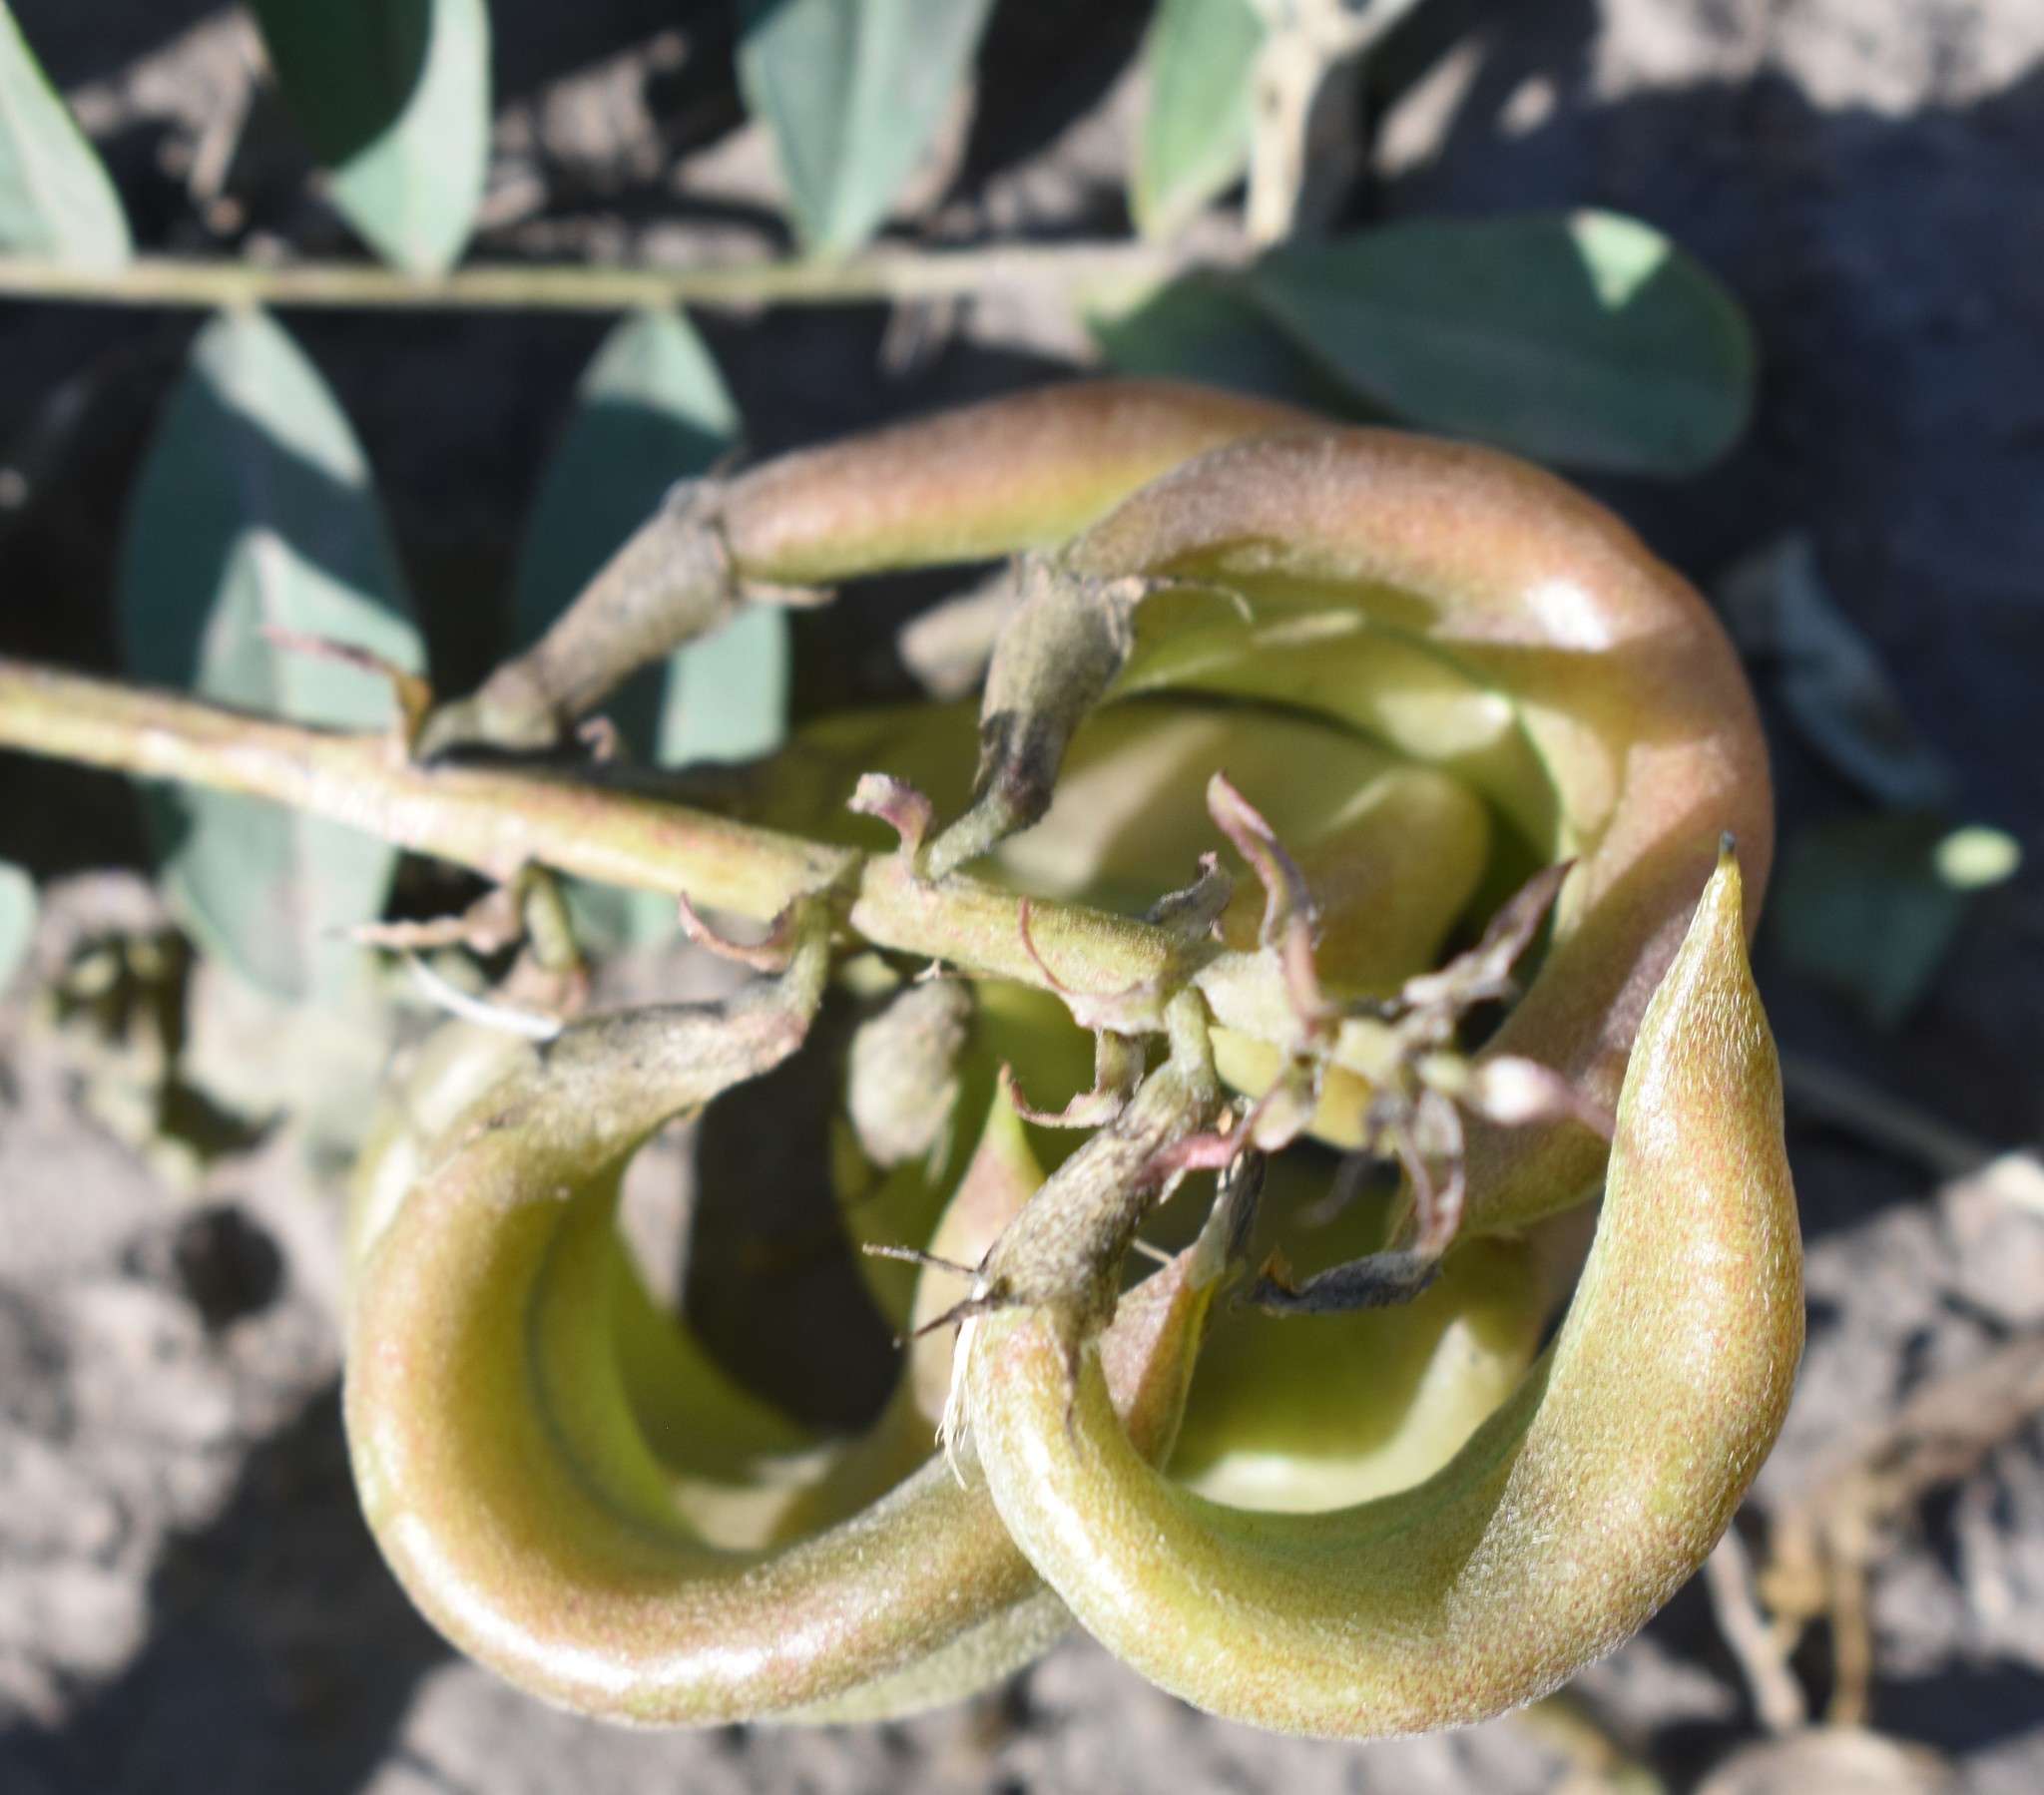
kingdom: Plantae
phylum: Tracheophyta
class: Magnoliopsida
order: Fabales
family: Fabaceae
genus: Astragalus
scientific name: Astragalus cibarius
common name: Browse milk-vetch
